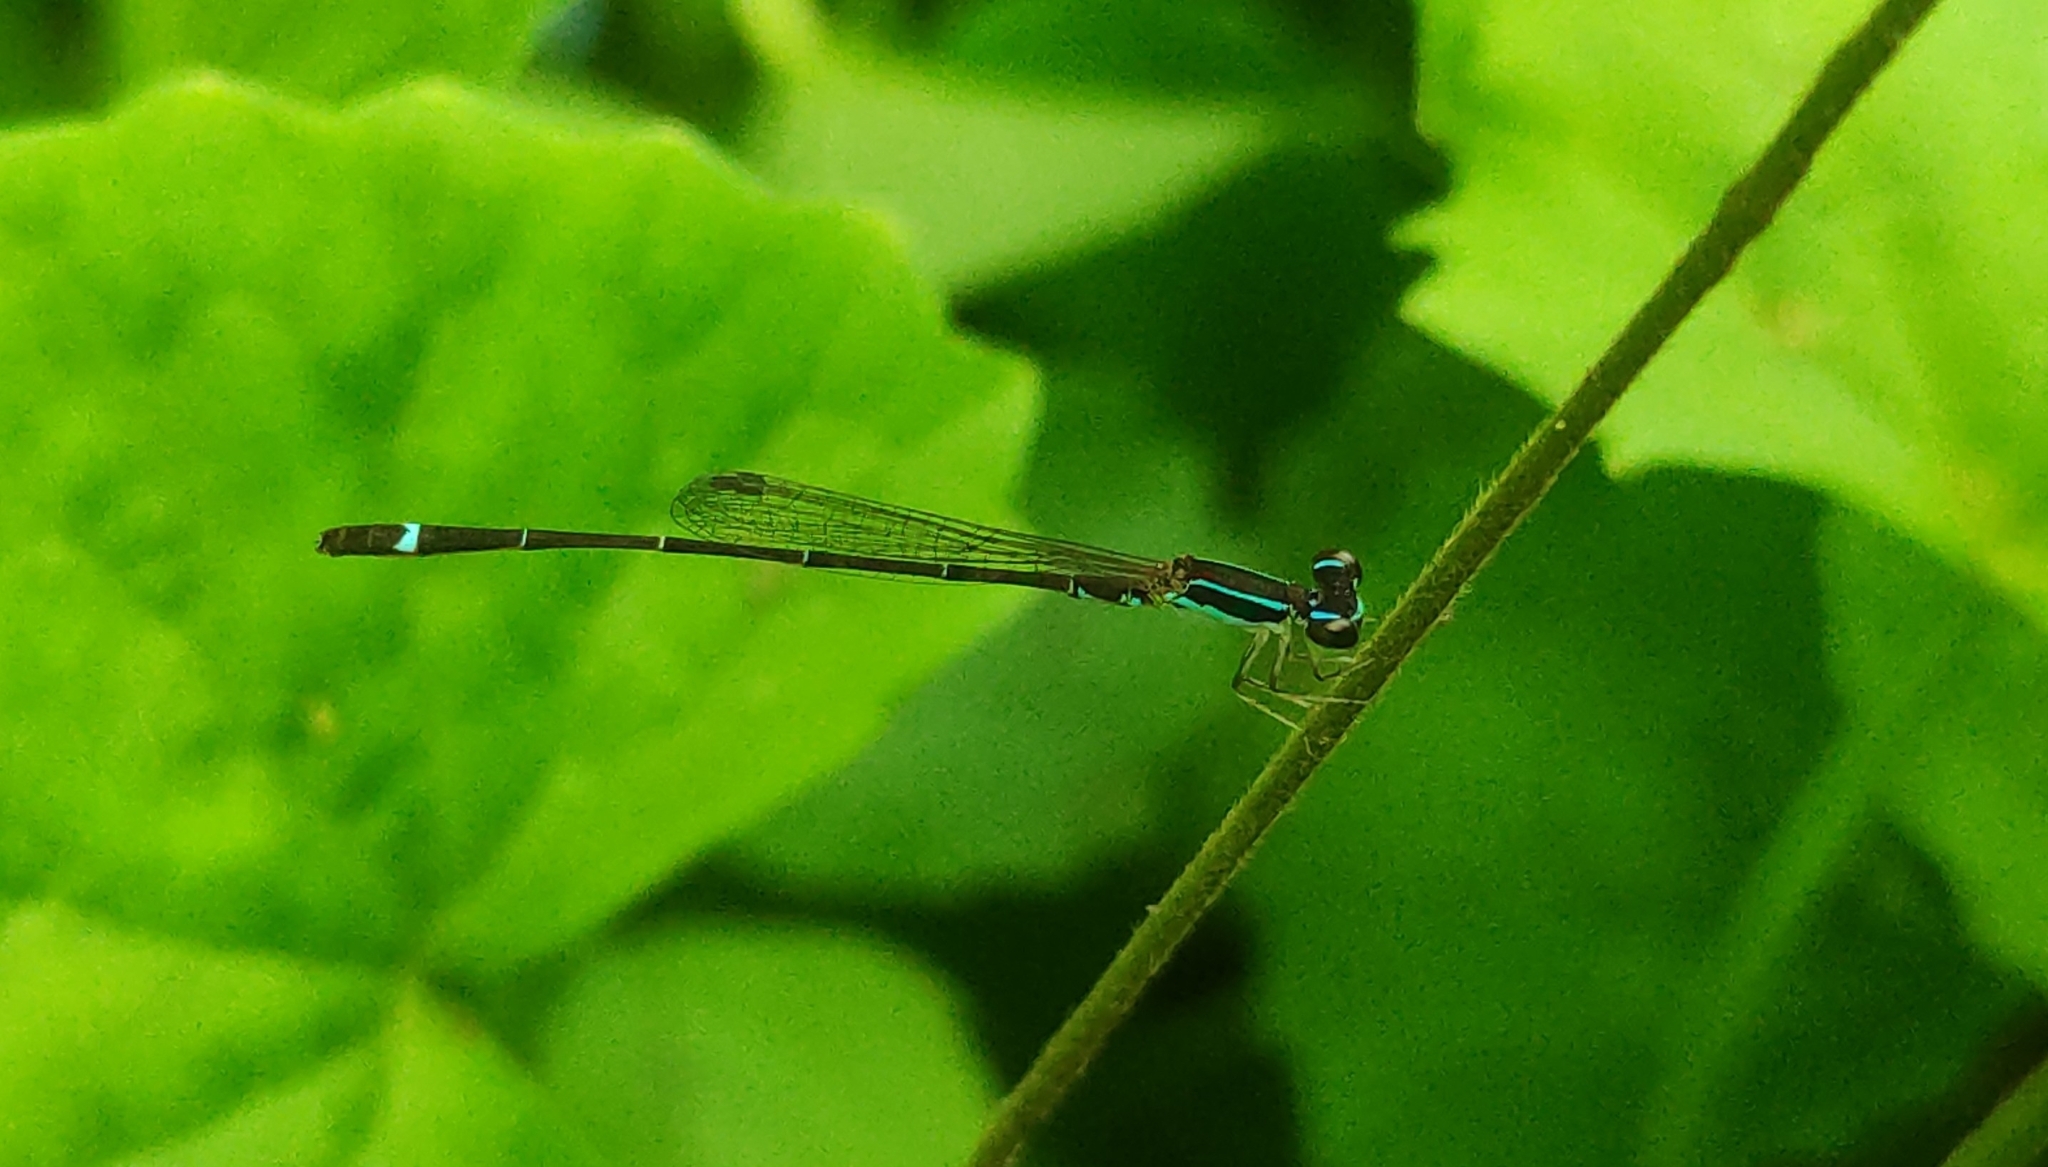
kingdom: Animalia
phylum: Arthropoda
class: Insecta
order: Odonata
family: Coenagrionidae
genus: Mortonagrion
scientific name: Mortonagrion varralli
